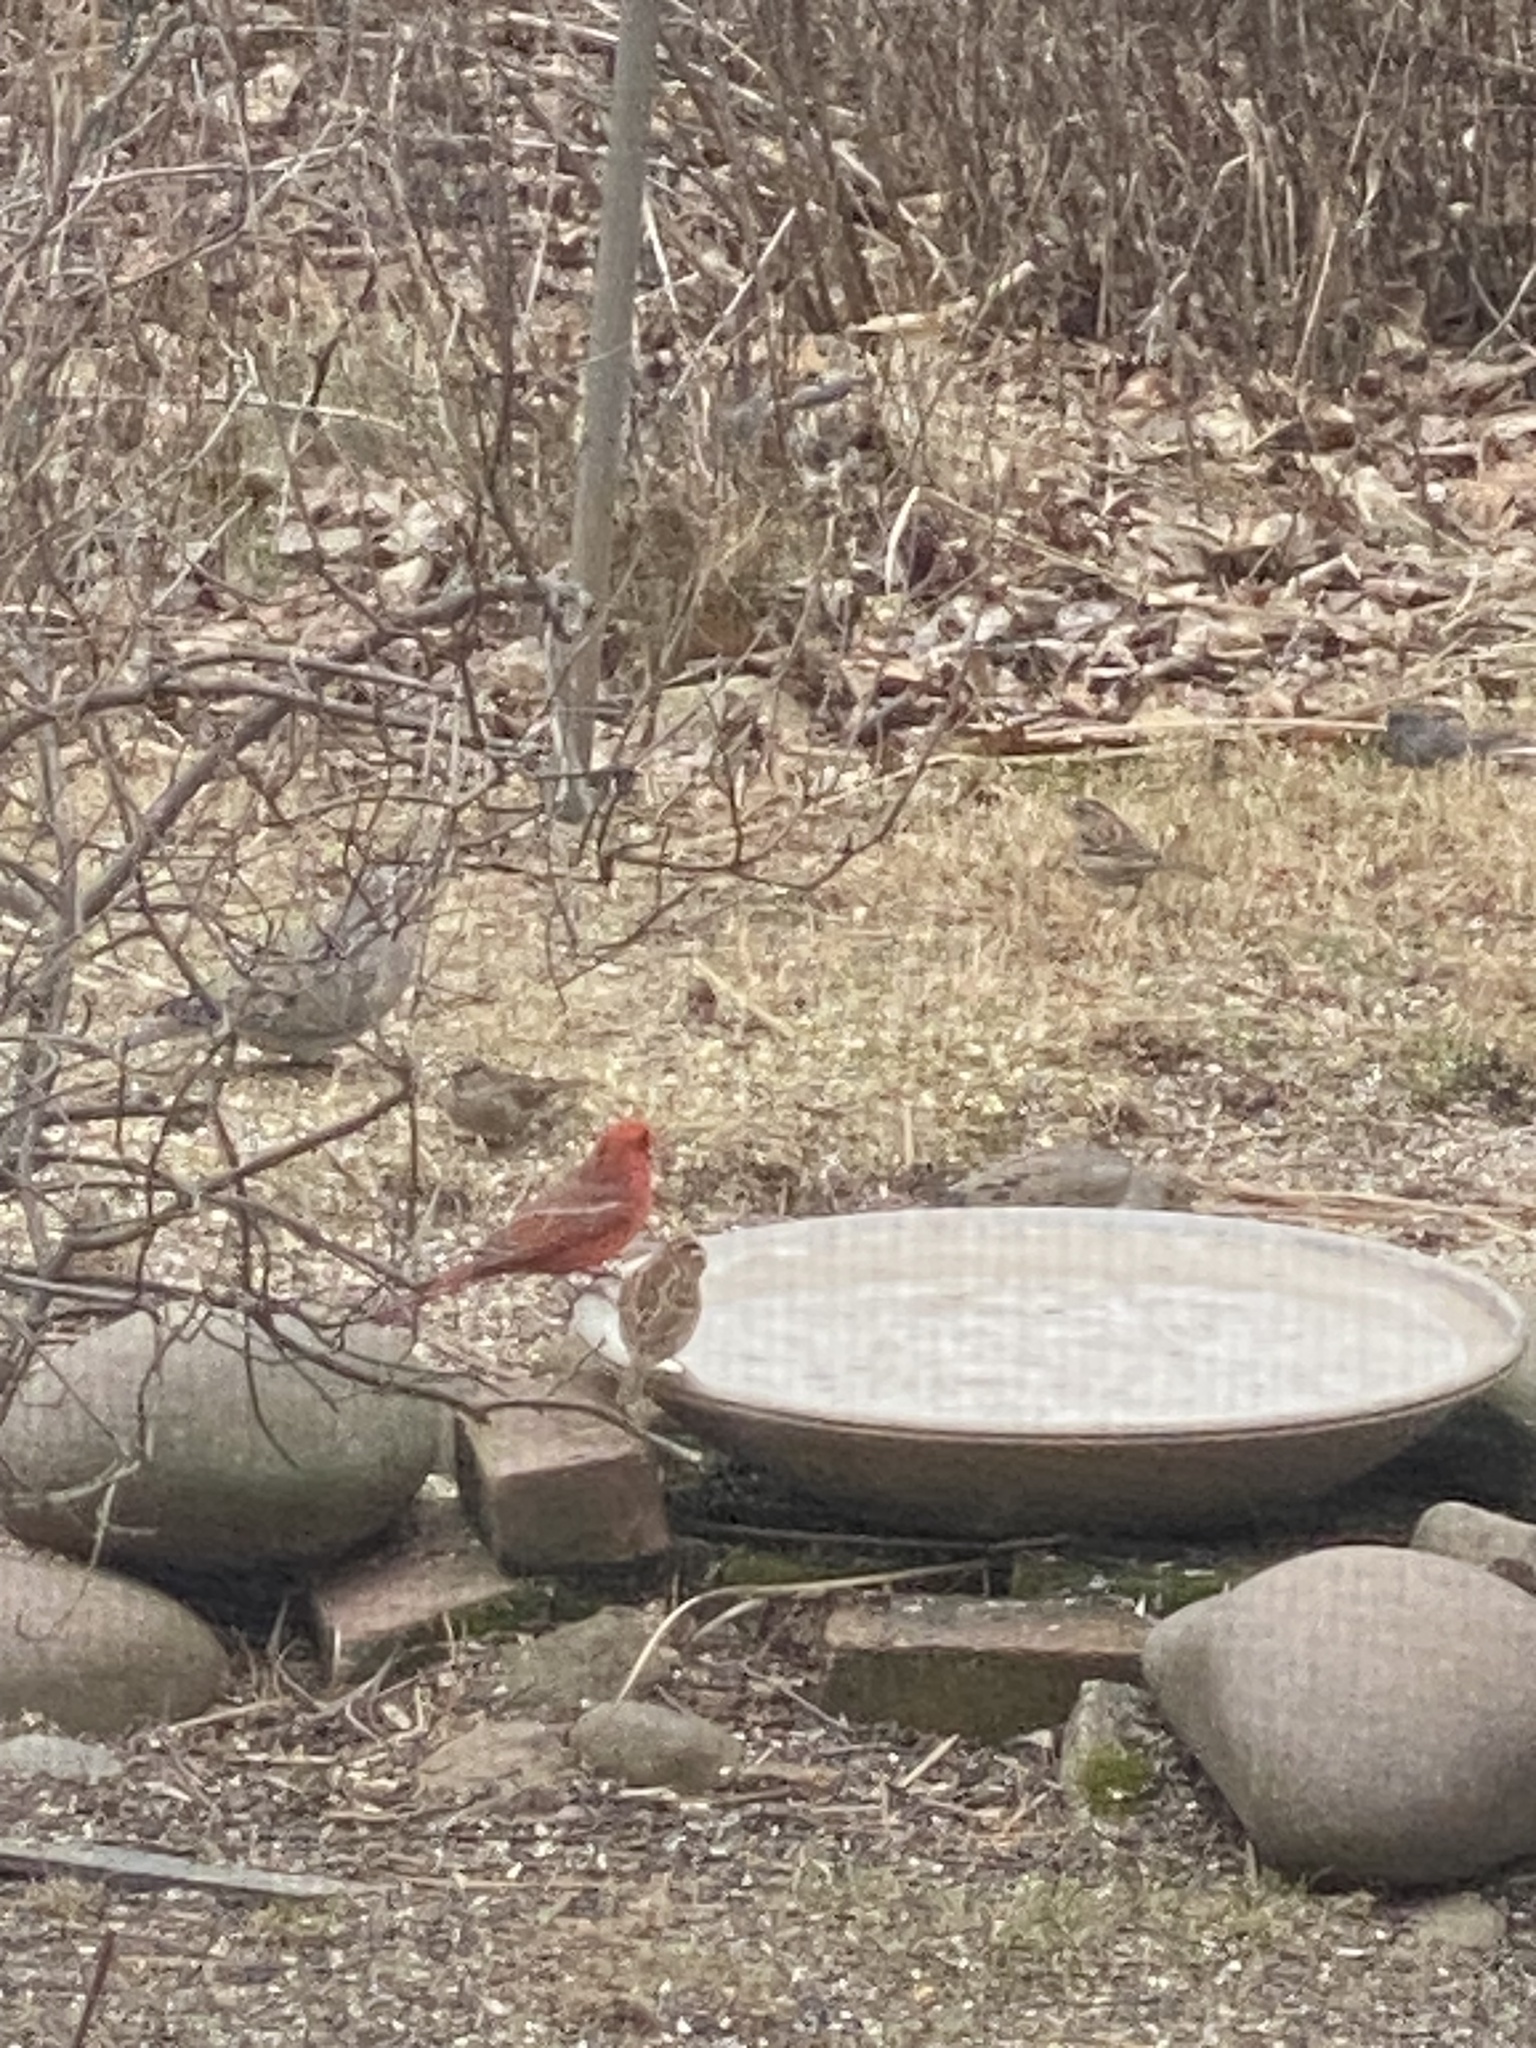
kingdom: Animalia
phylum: Chordata
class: Aves
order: Passeriformes
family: Cardinalidae
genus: Cardinalis
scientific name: Cardinalis cardinalis
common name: Northern cardinal
